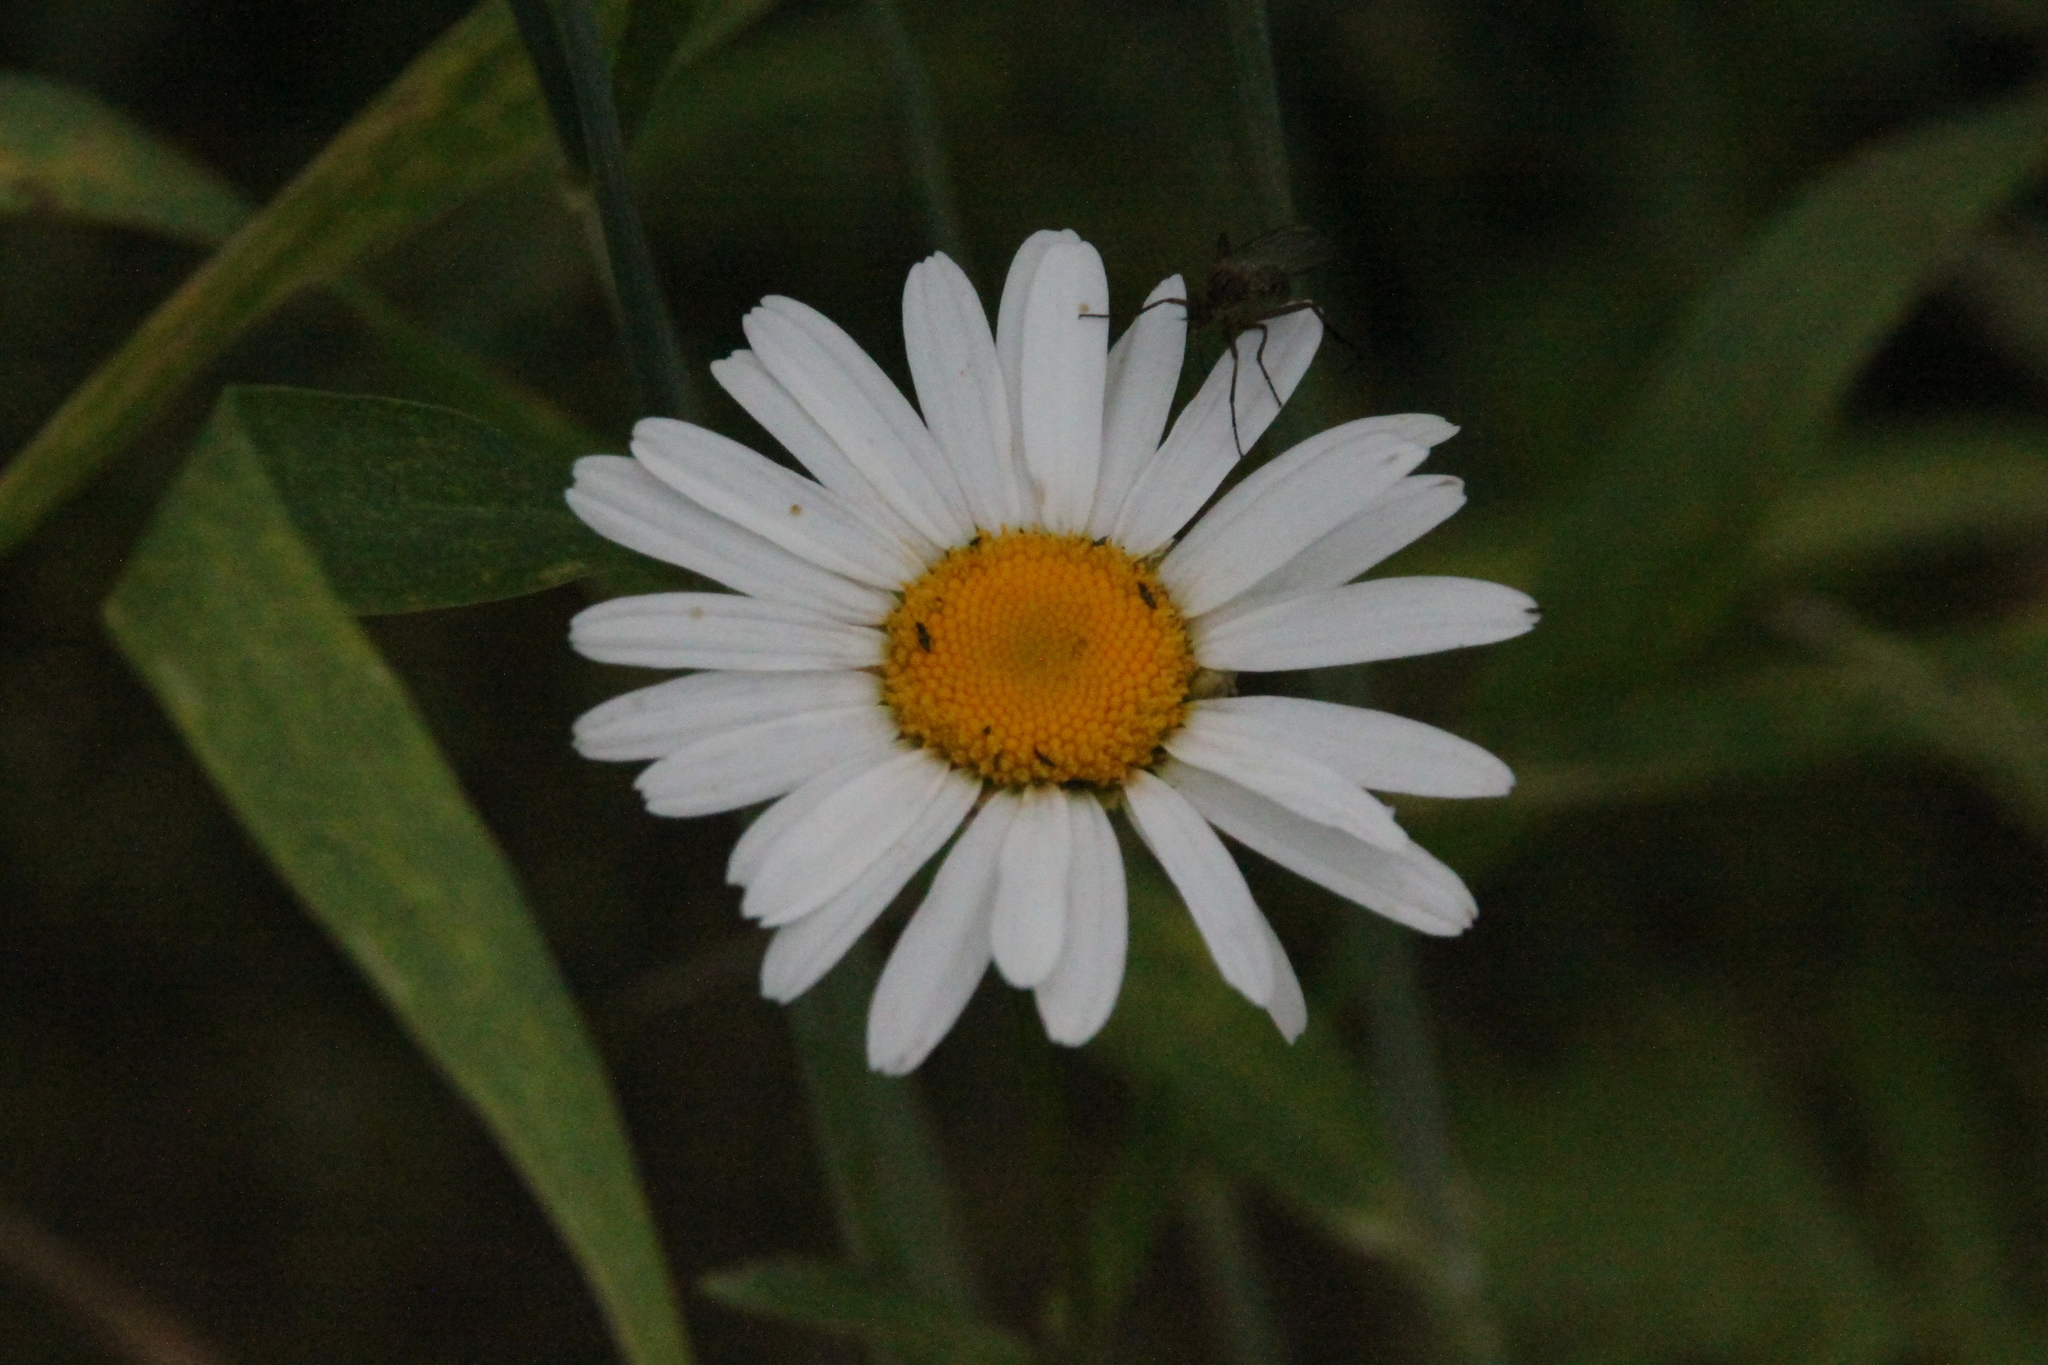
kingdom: Plantae
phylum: Tracheophyta
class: Magnoliopsida
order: Asterales
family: Asteraceae
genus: Leucanthemum
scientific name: Leucanthemum vulgare
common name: Oxeye daisy
